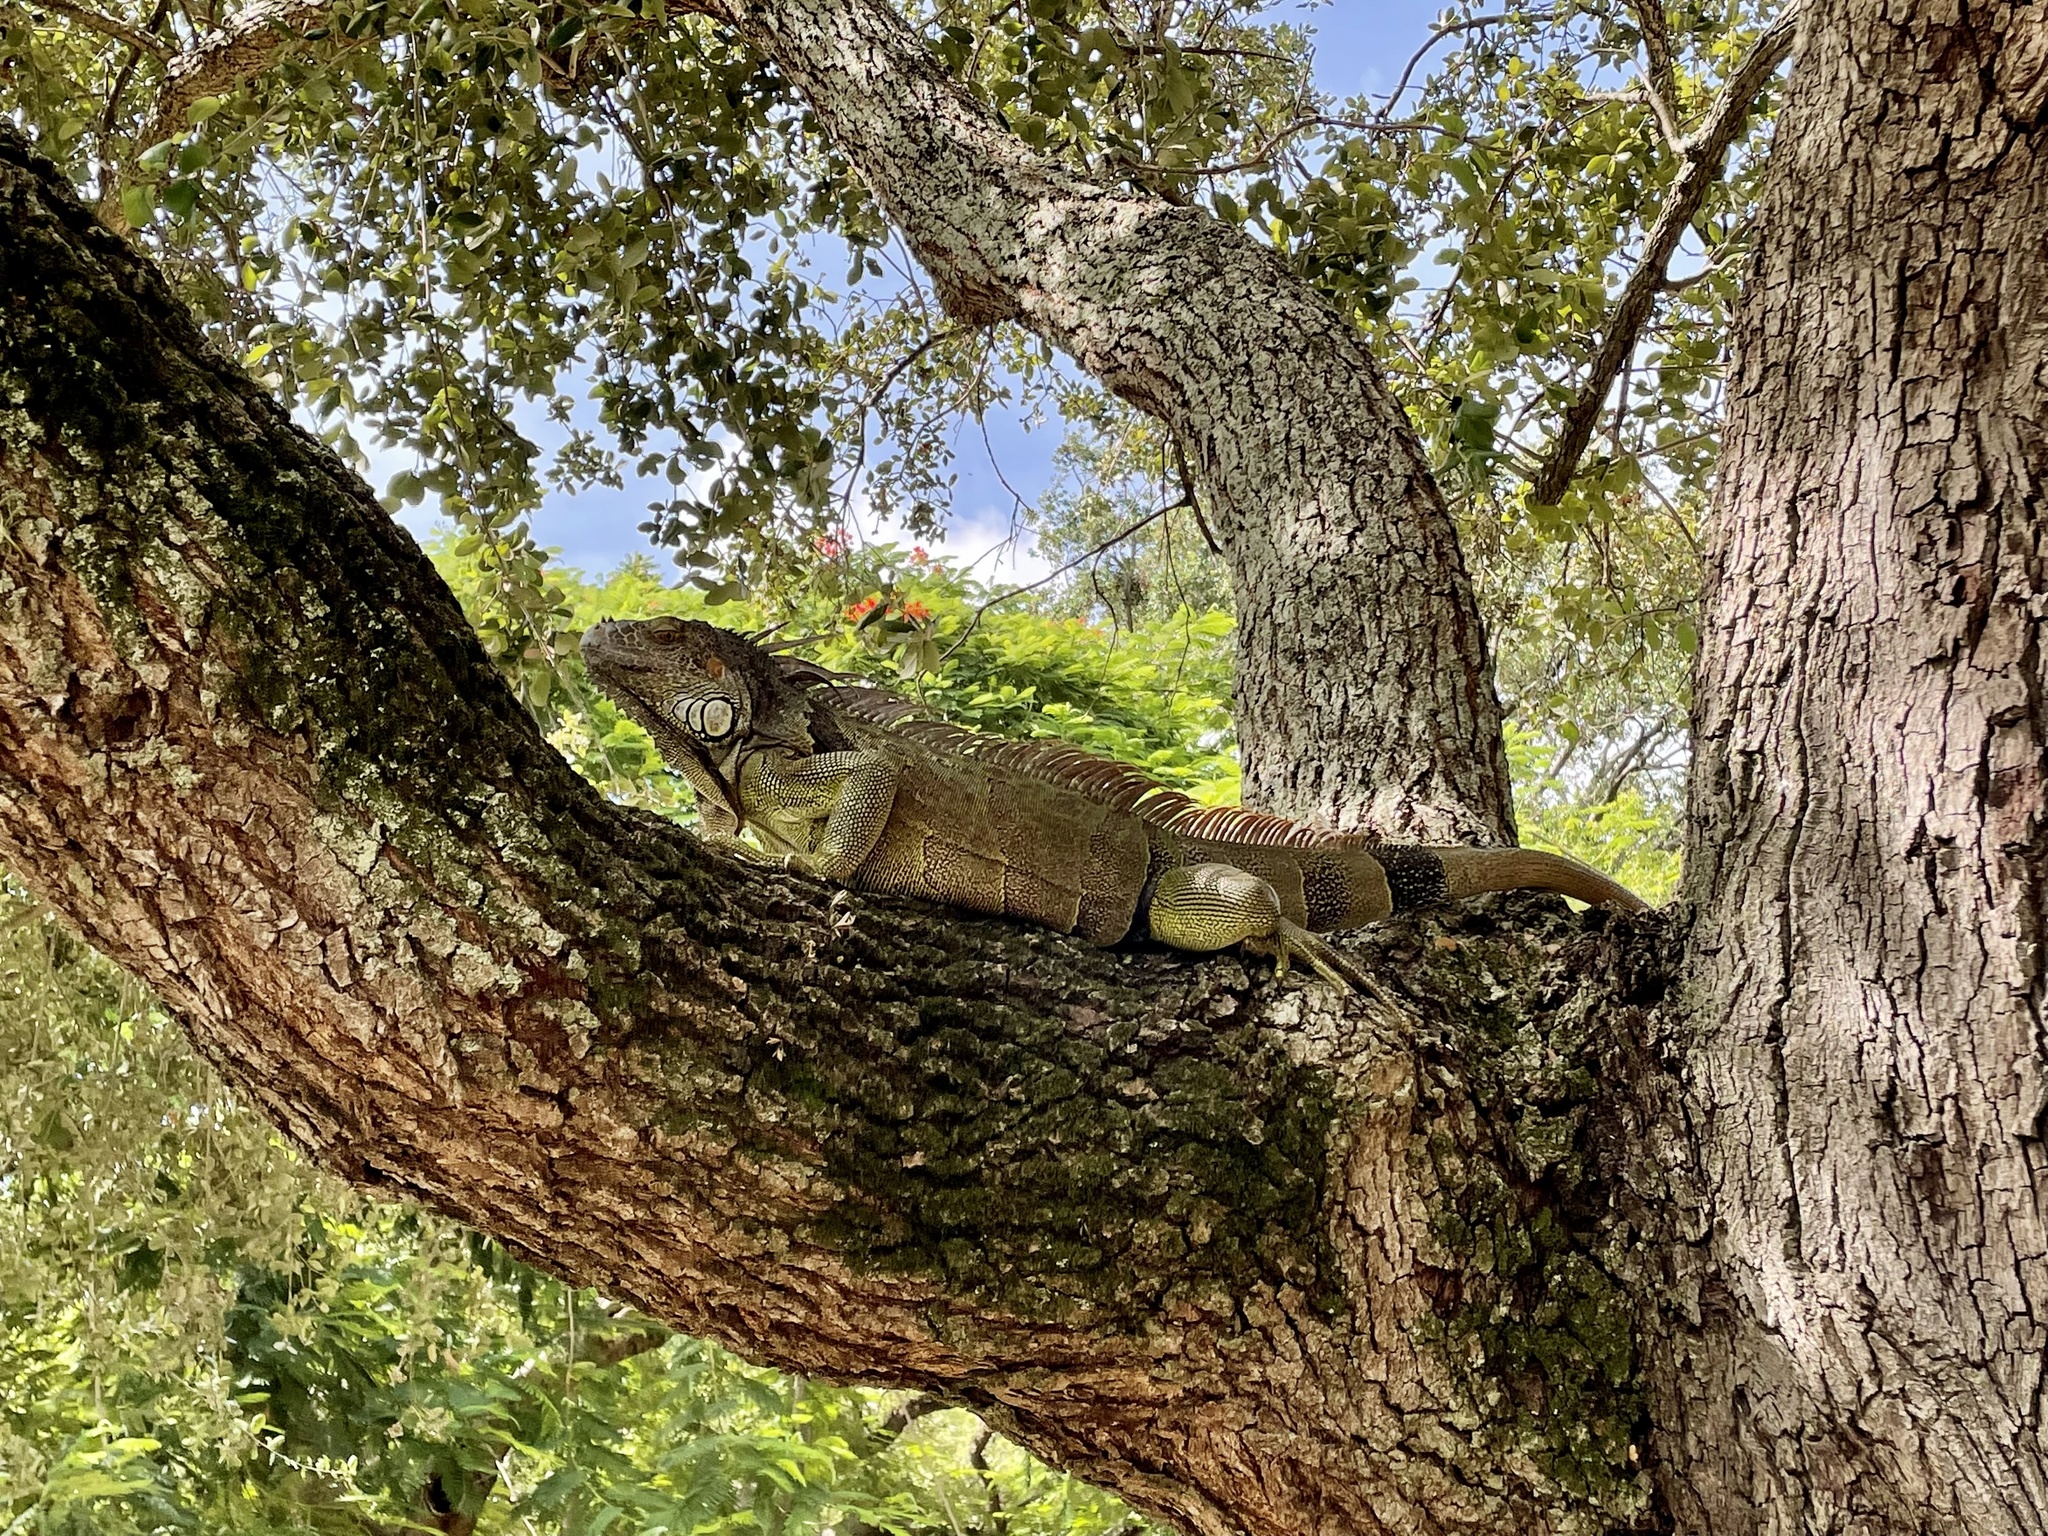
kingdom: Animalia
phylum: Chordata
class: Squamata
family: Iguanidae
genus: Iguana
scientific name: Iguana iguana
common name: Green iguana
